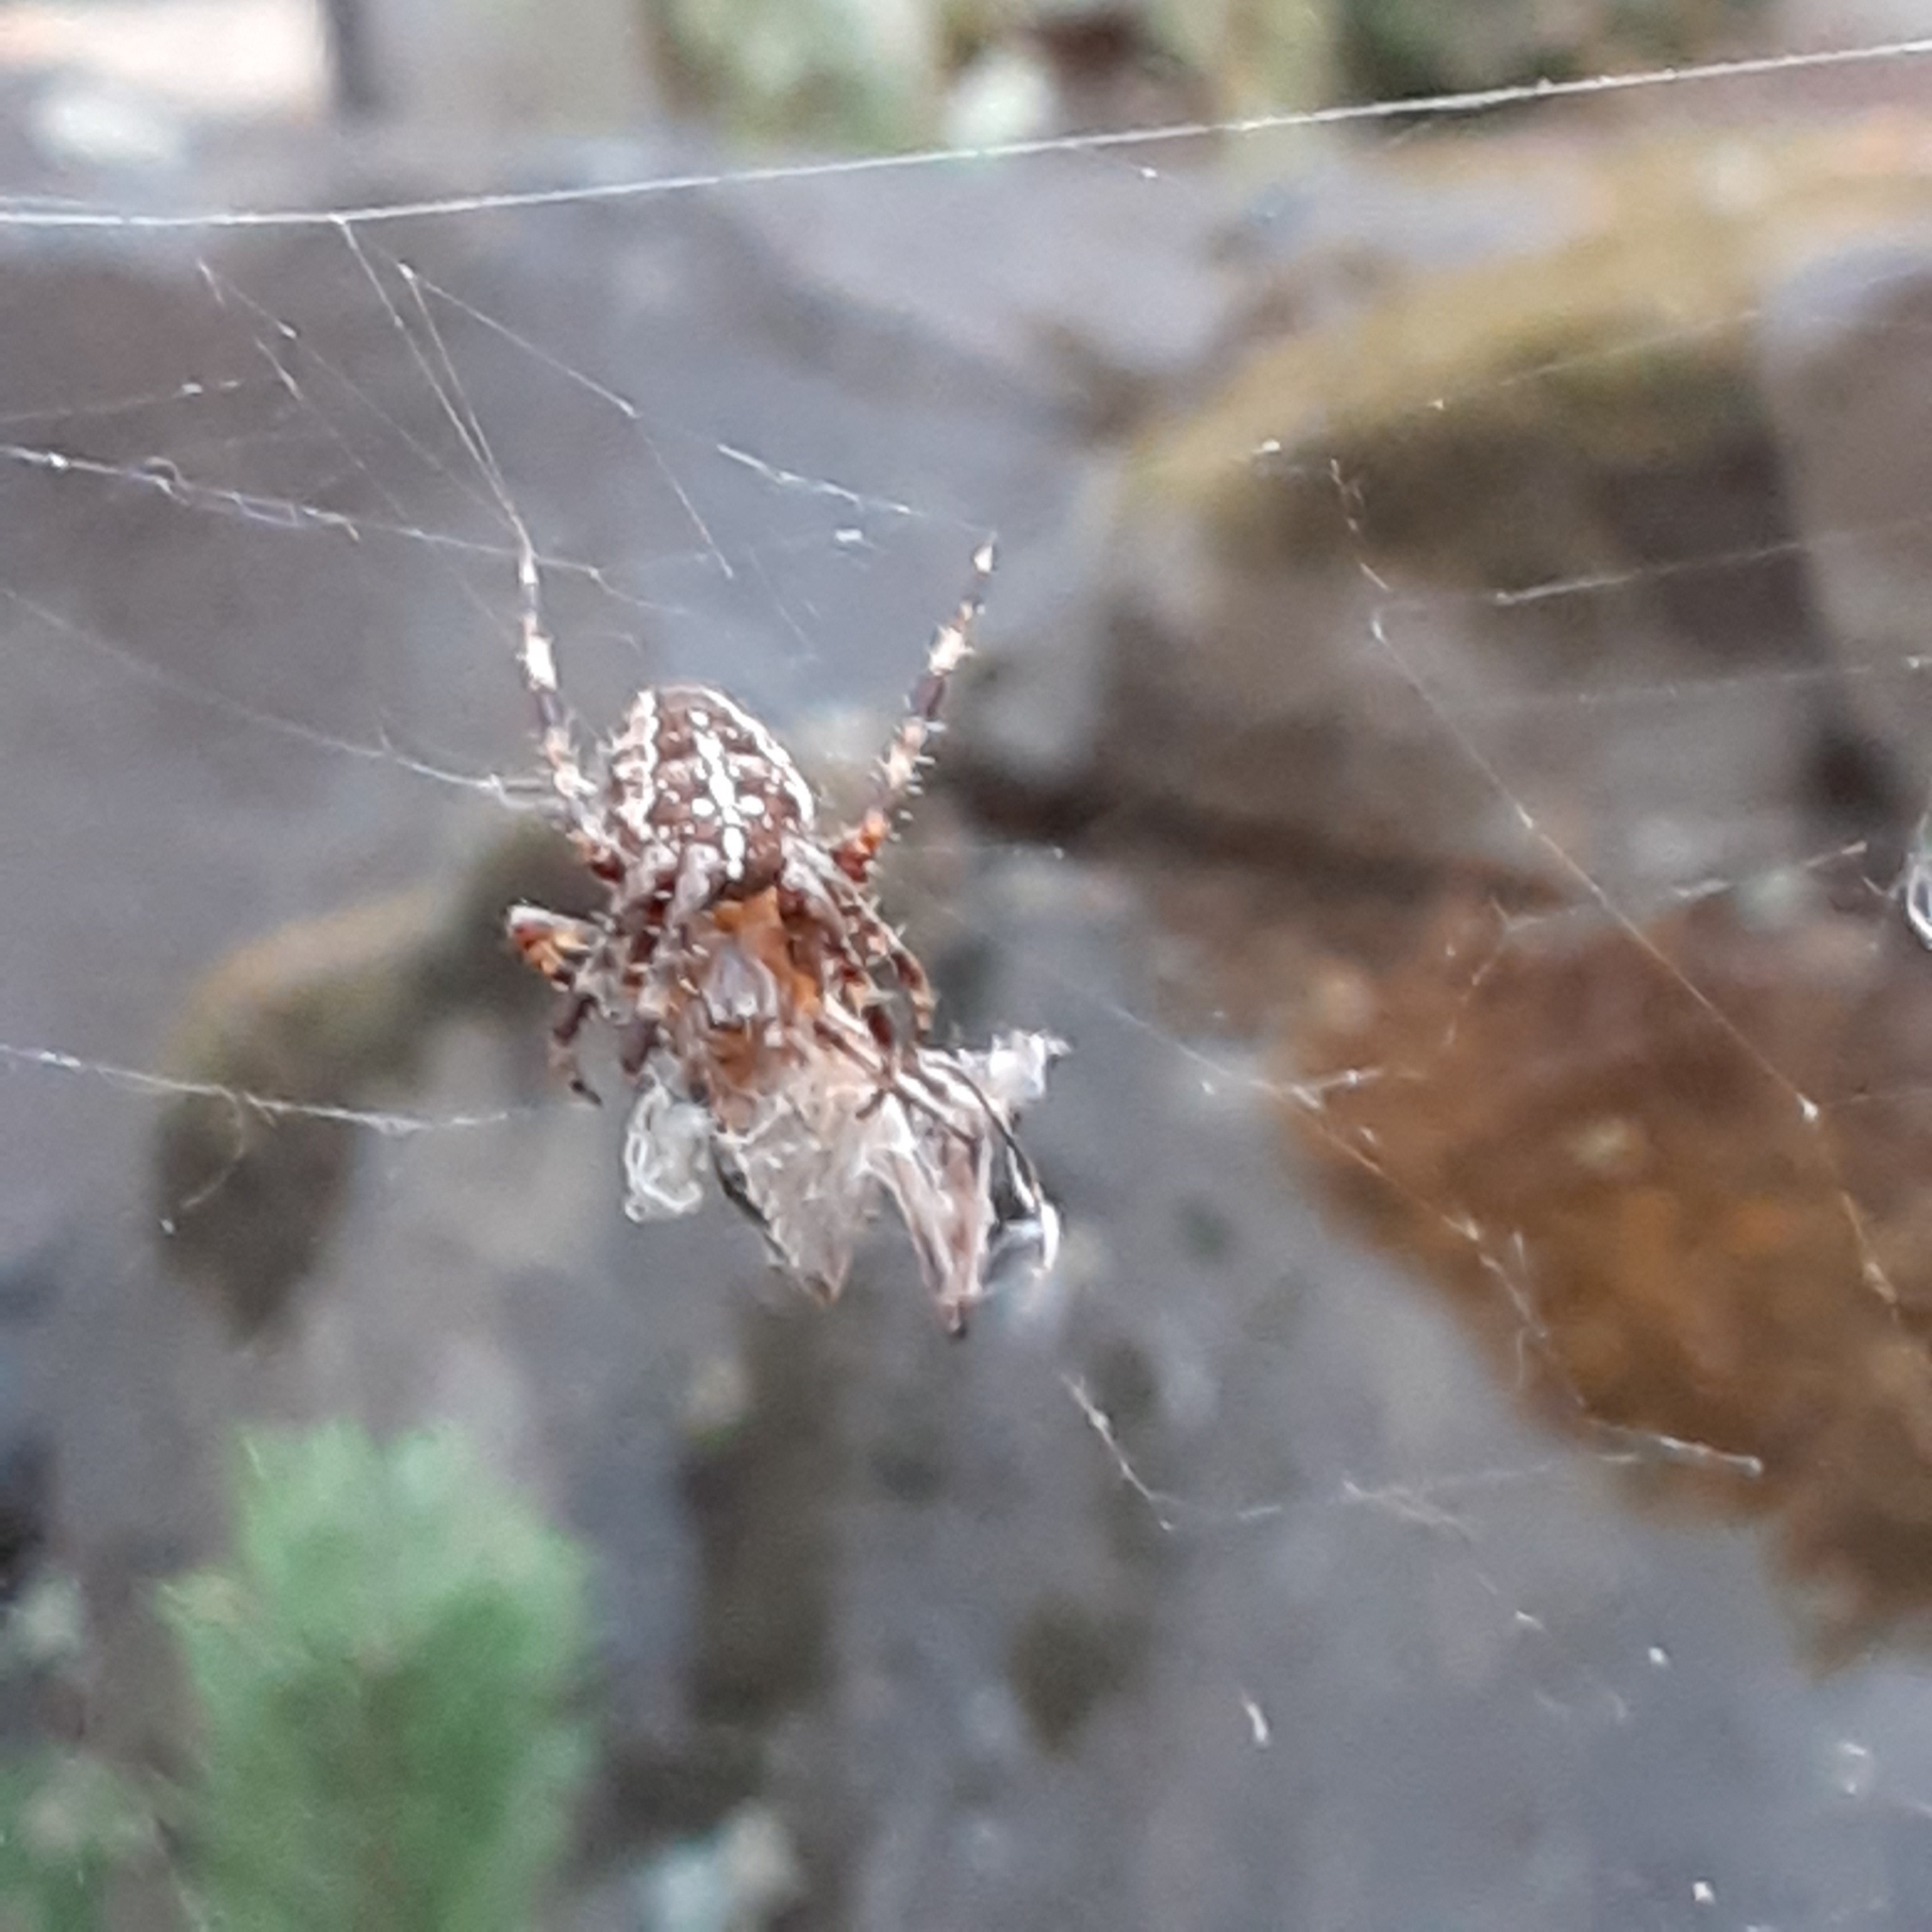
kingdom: Animalia
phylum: Arthropoda
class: Arachnida
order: Araneae
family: Araneidae
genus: Araneus
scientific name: Araneus diadematus
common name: Cross orbweaver
